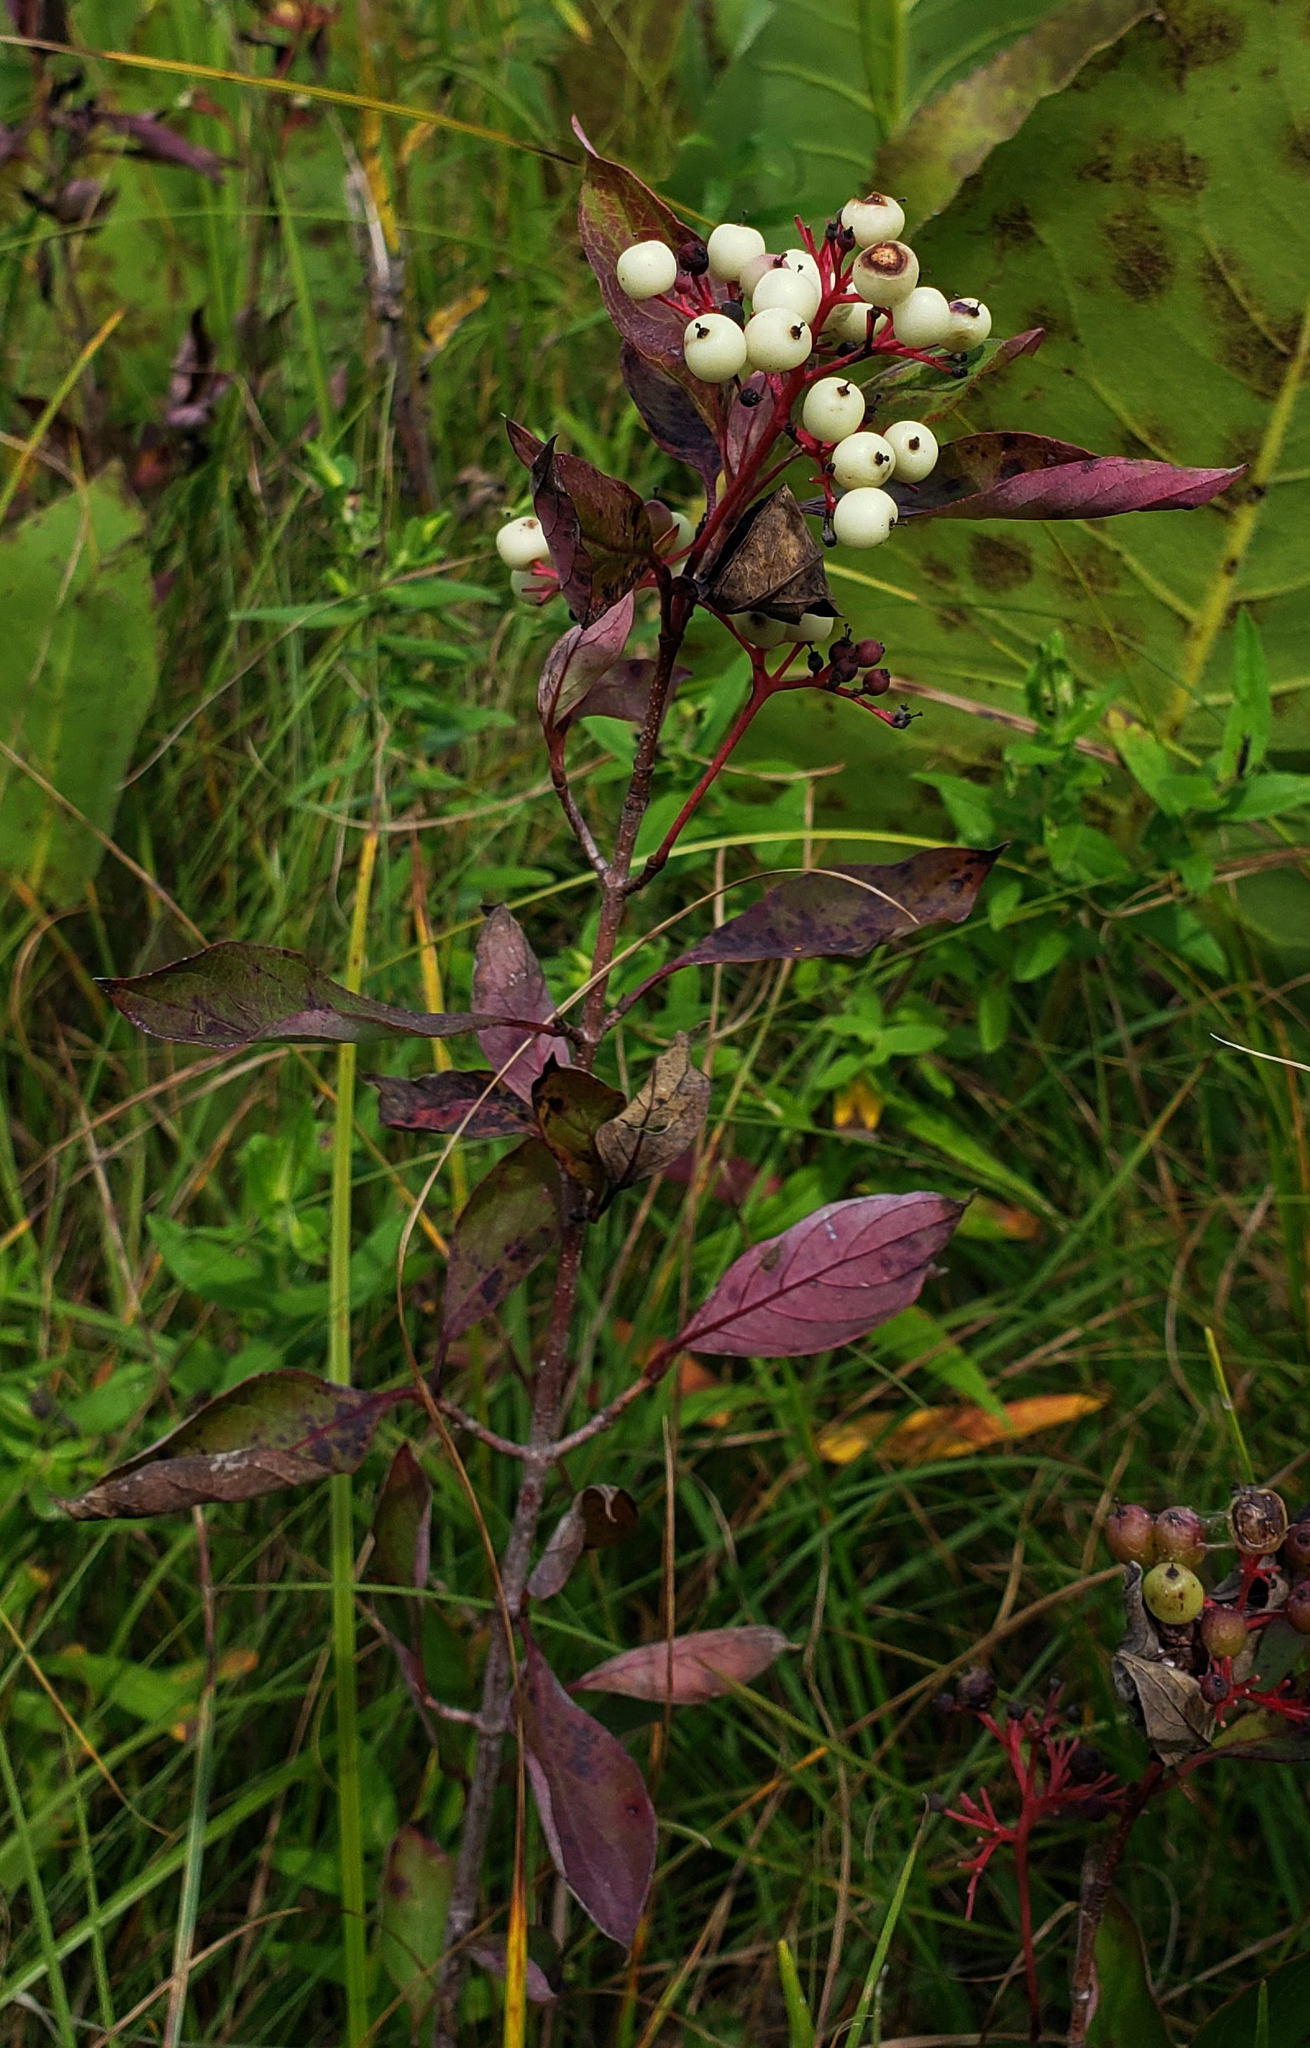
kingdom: Plantae
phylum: Tracheophyta
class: Magnoliopsida
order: Cornales
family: Cornaceae
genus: Cornus
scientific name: Cornus racemosa
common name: Panicled dogwood
